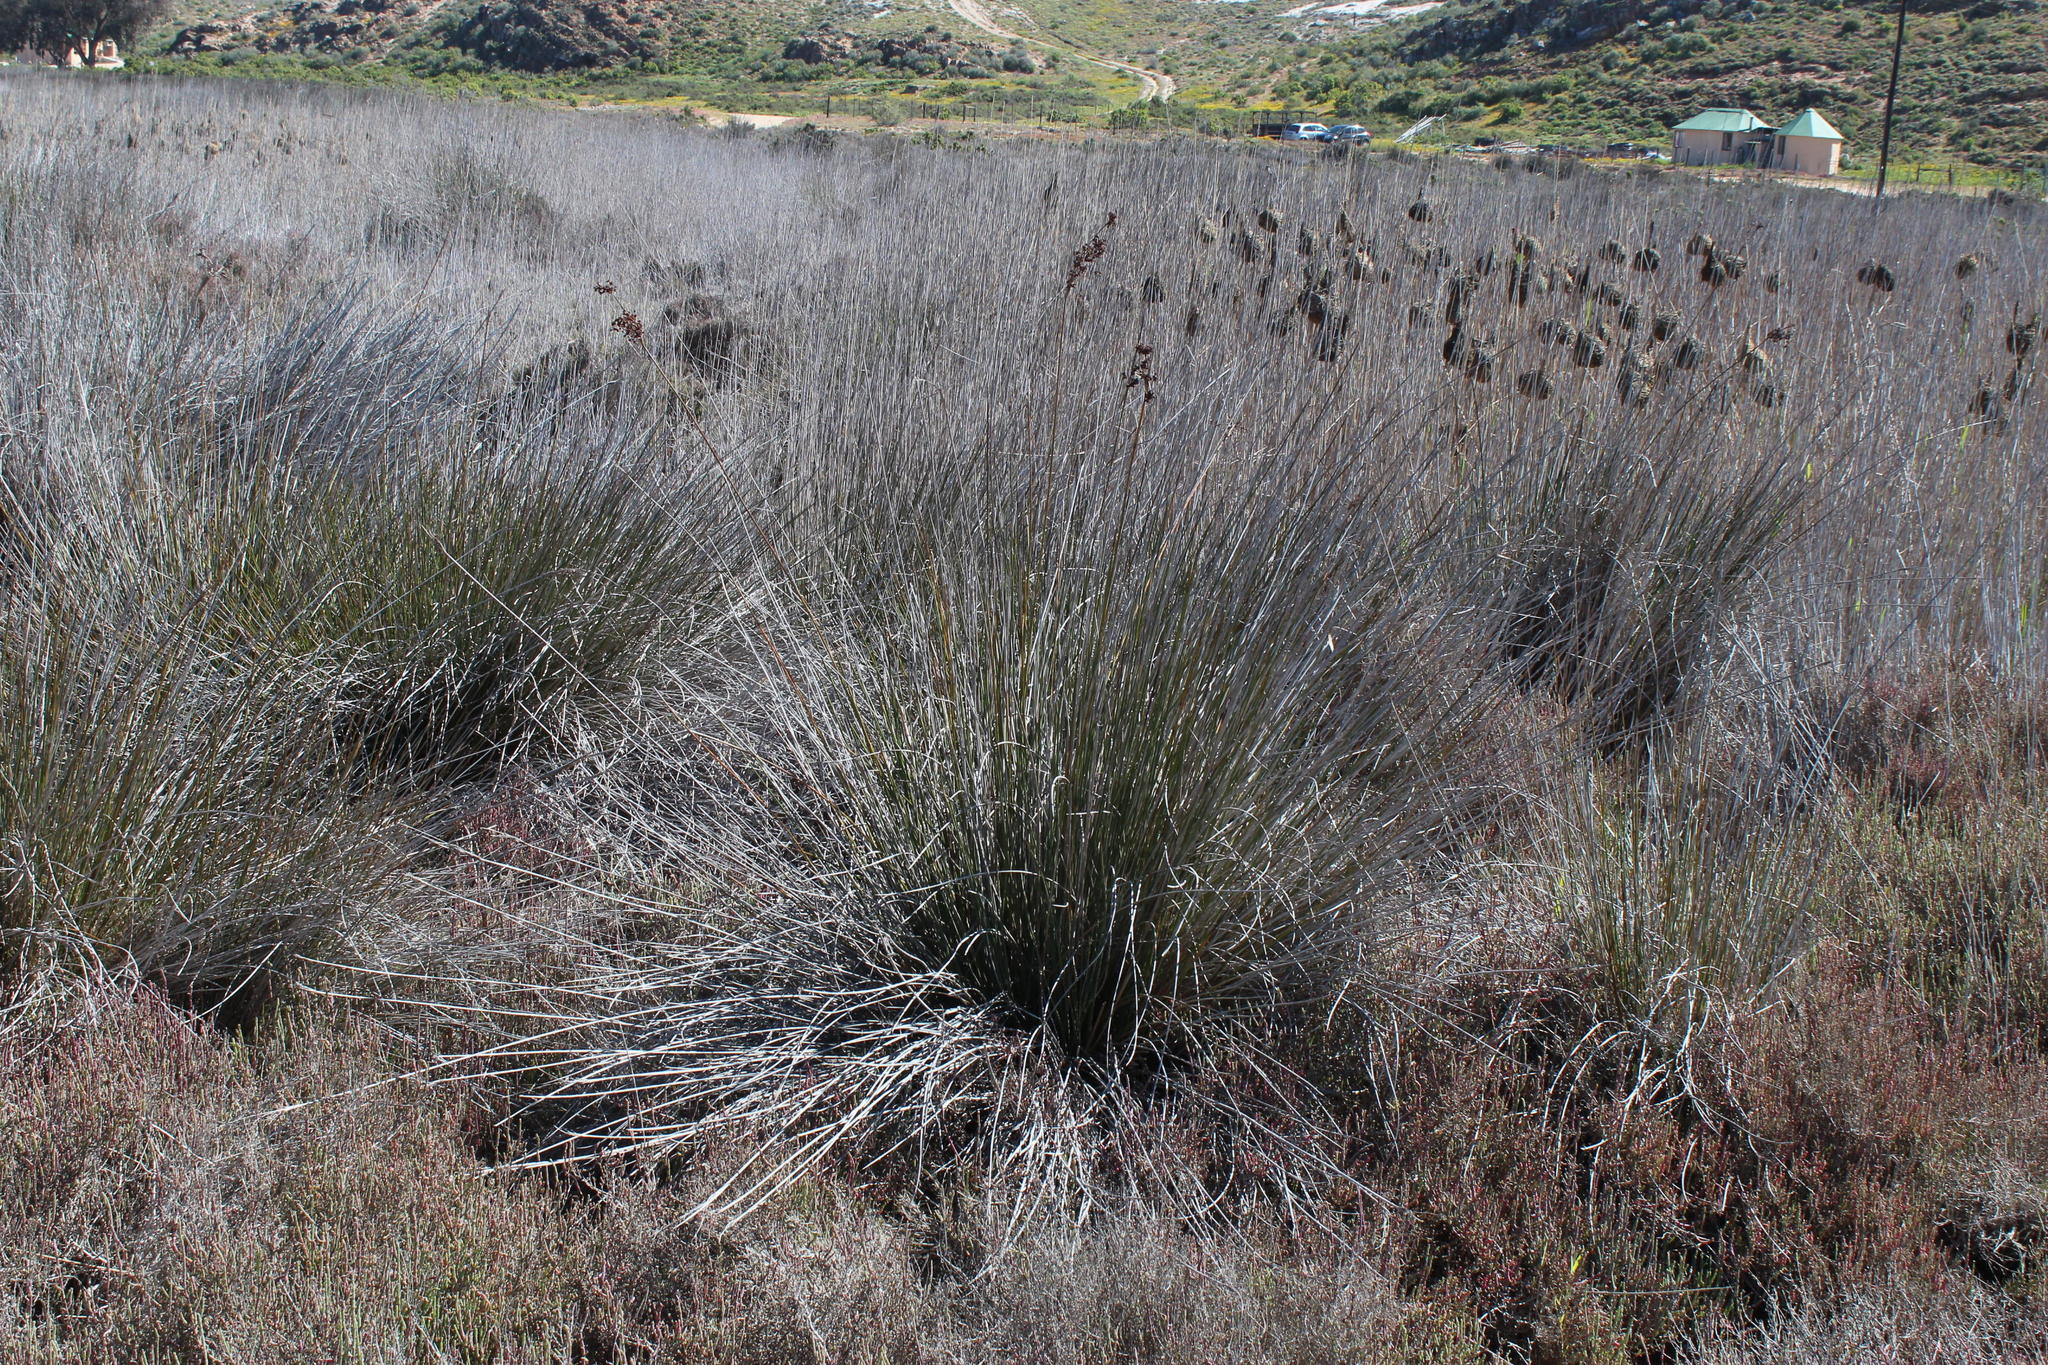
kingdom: Plantae
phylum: Tracheophyta
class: Liliopsida
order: Poales
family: Juncaceae
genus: Juncus
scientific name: Juncus acutus
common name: Sharp rush
